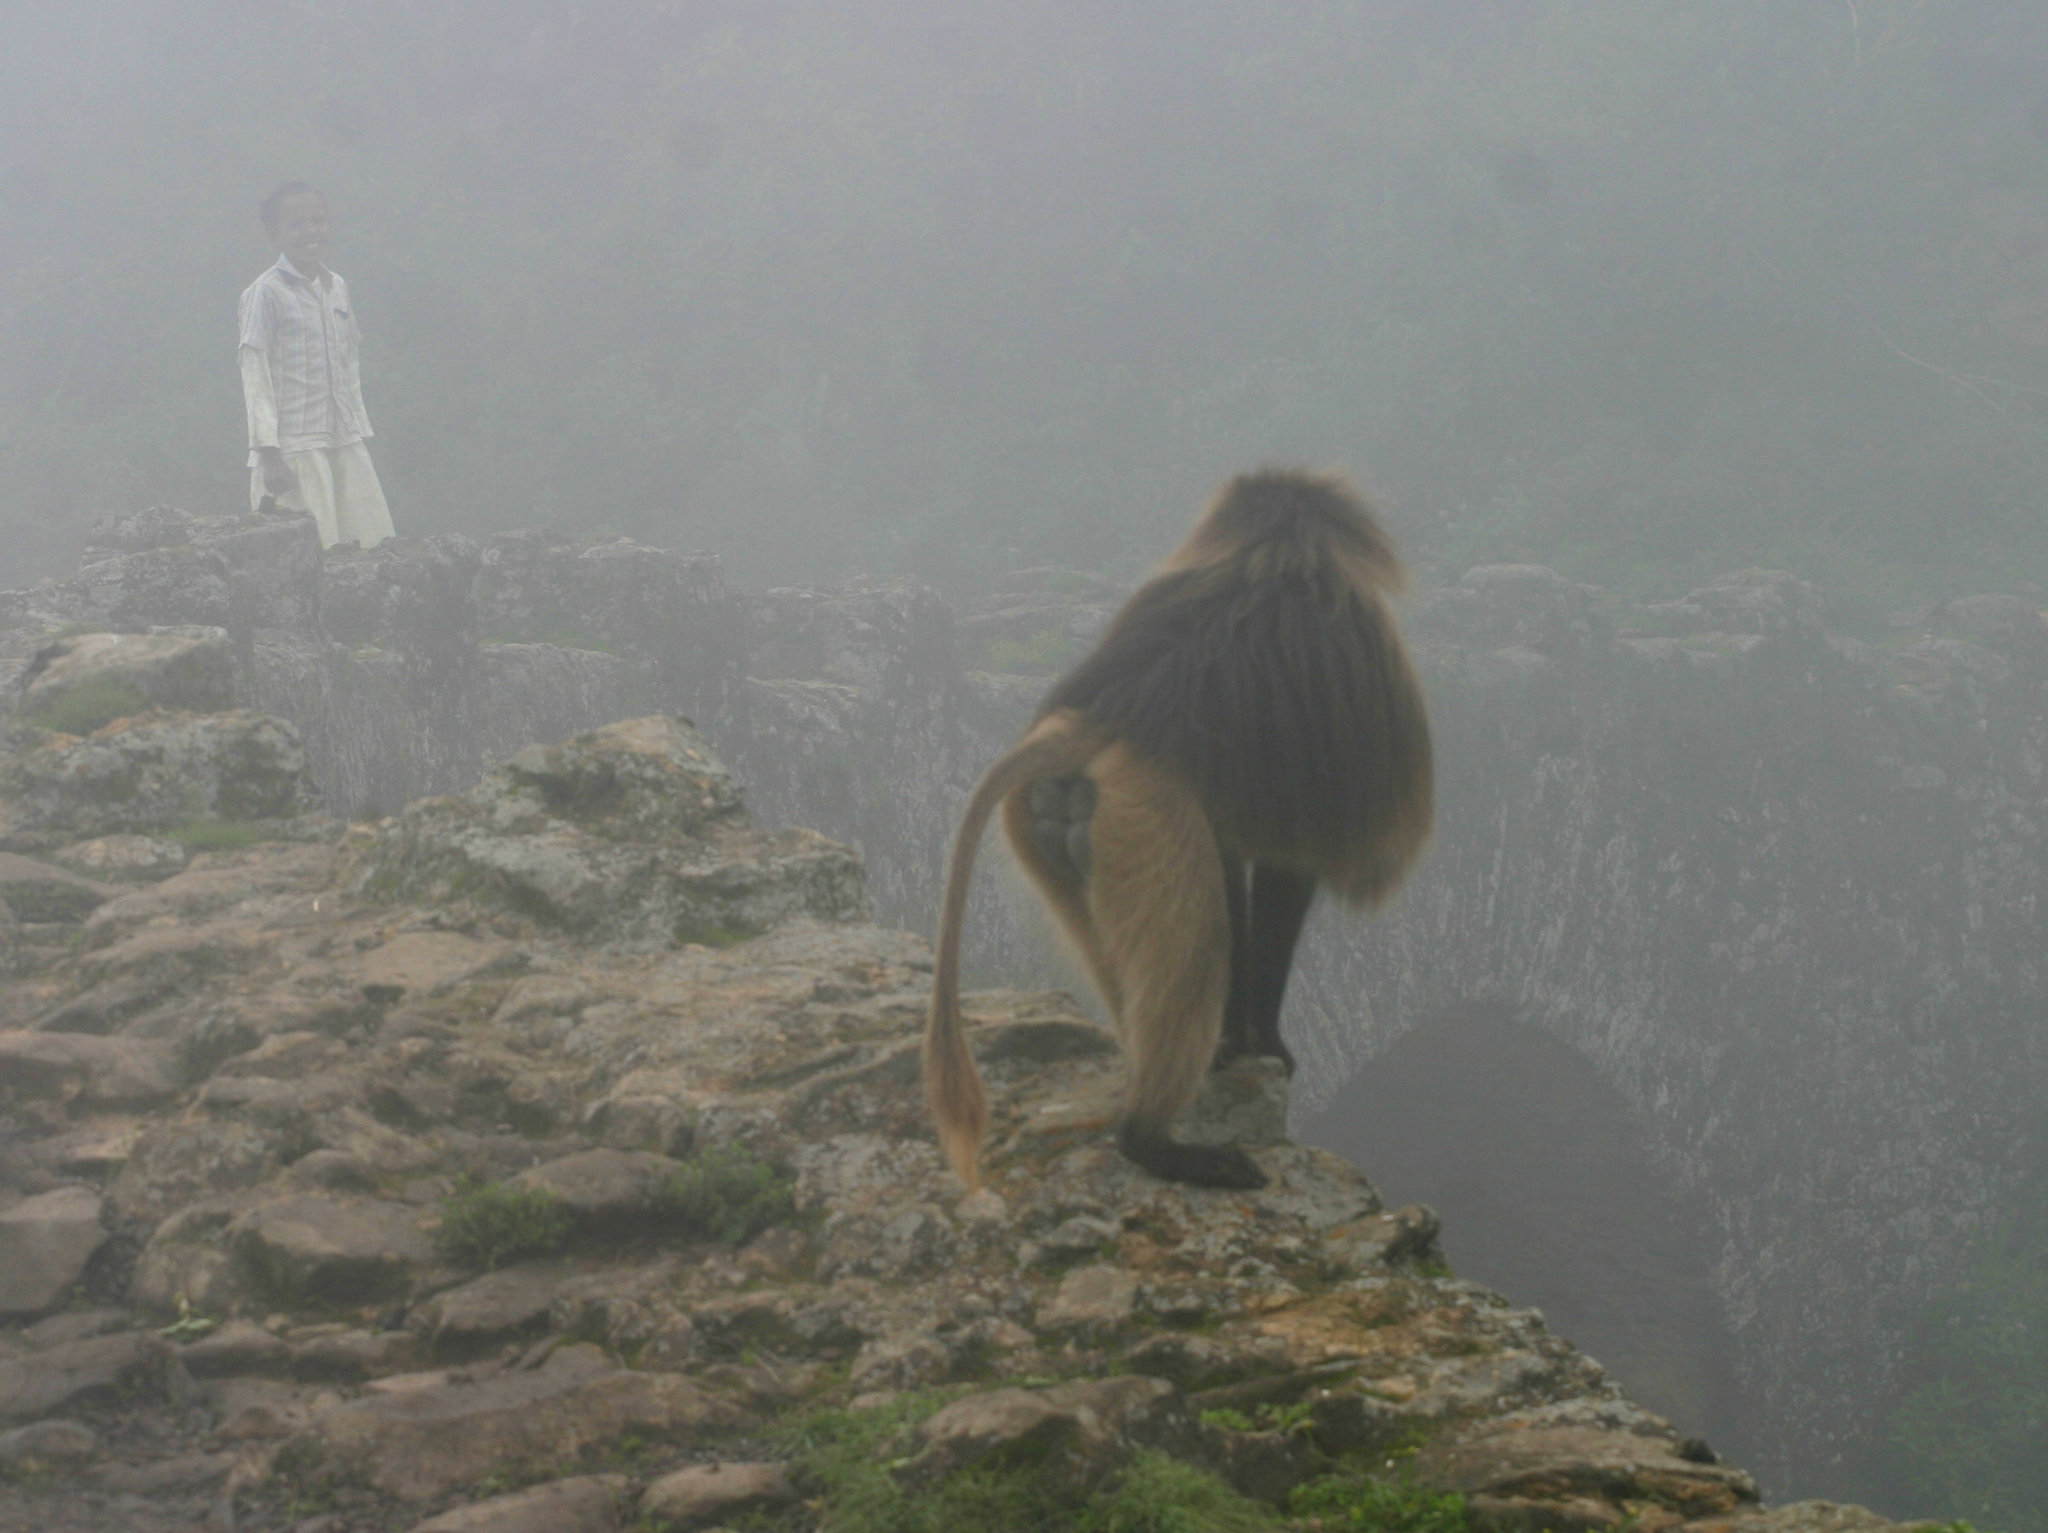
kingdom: Animalia
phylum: Chordata
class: Mammalia
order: Primates
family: Cercopithecidae
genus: Theropithecus
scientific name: Theropithecus gelada
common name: Gelada
